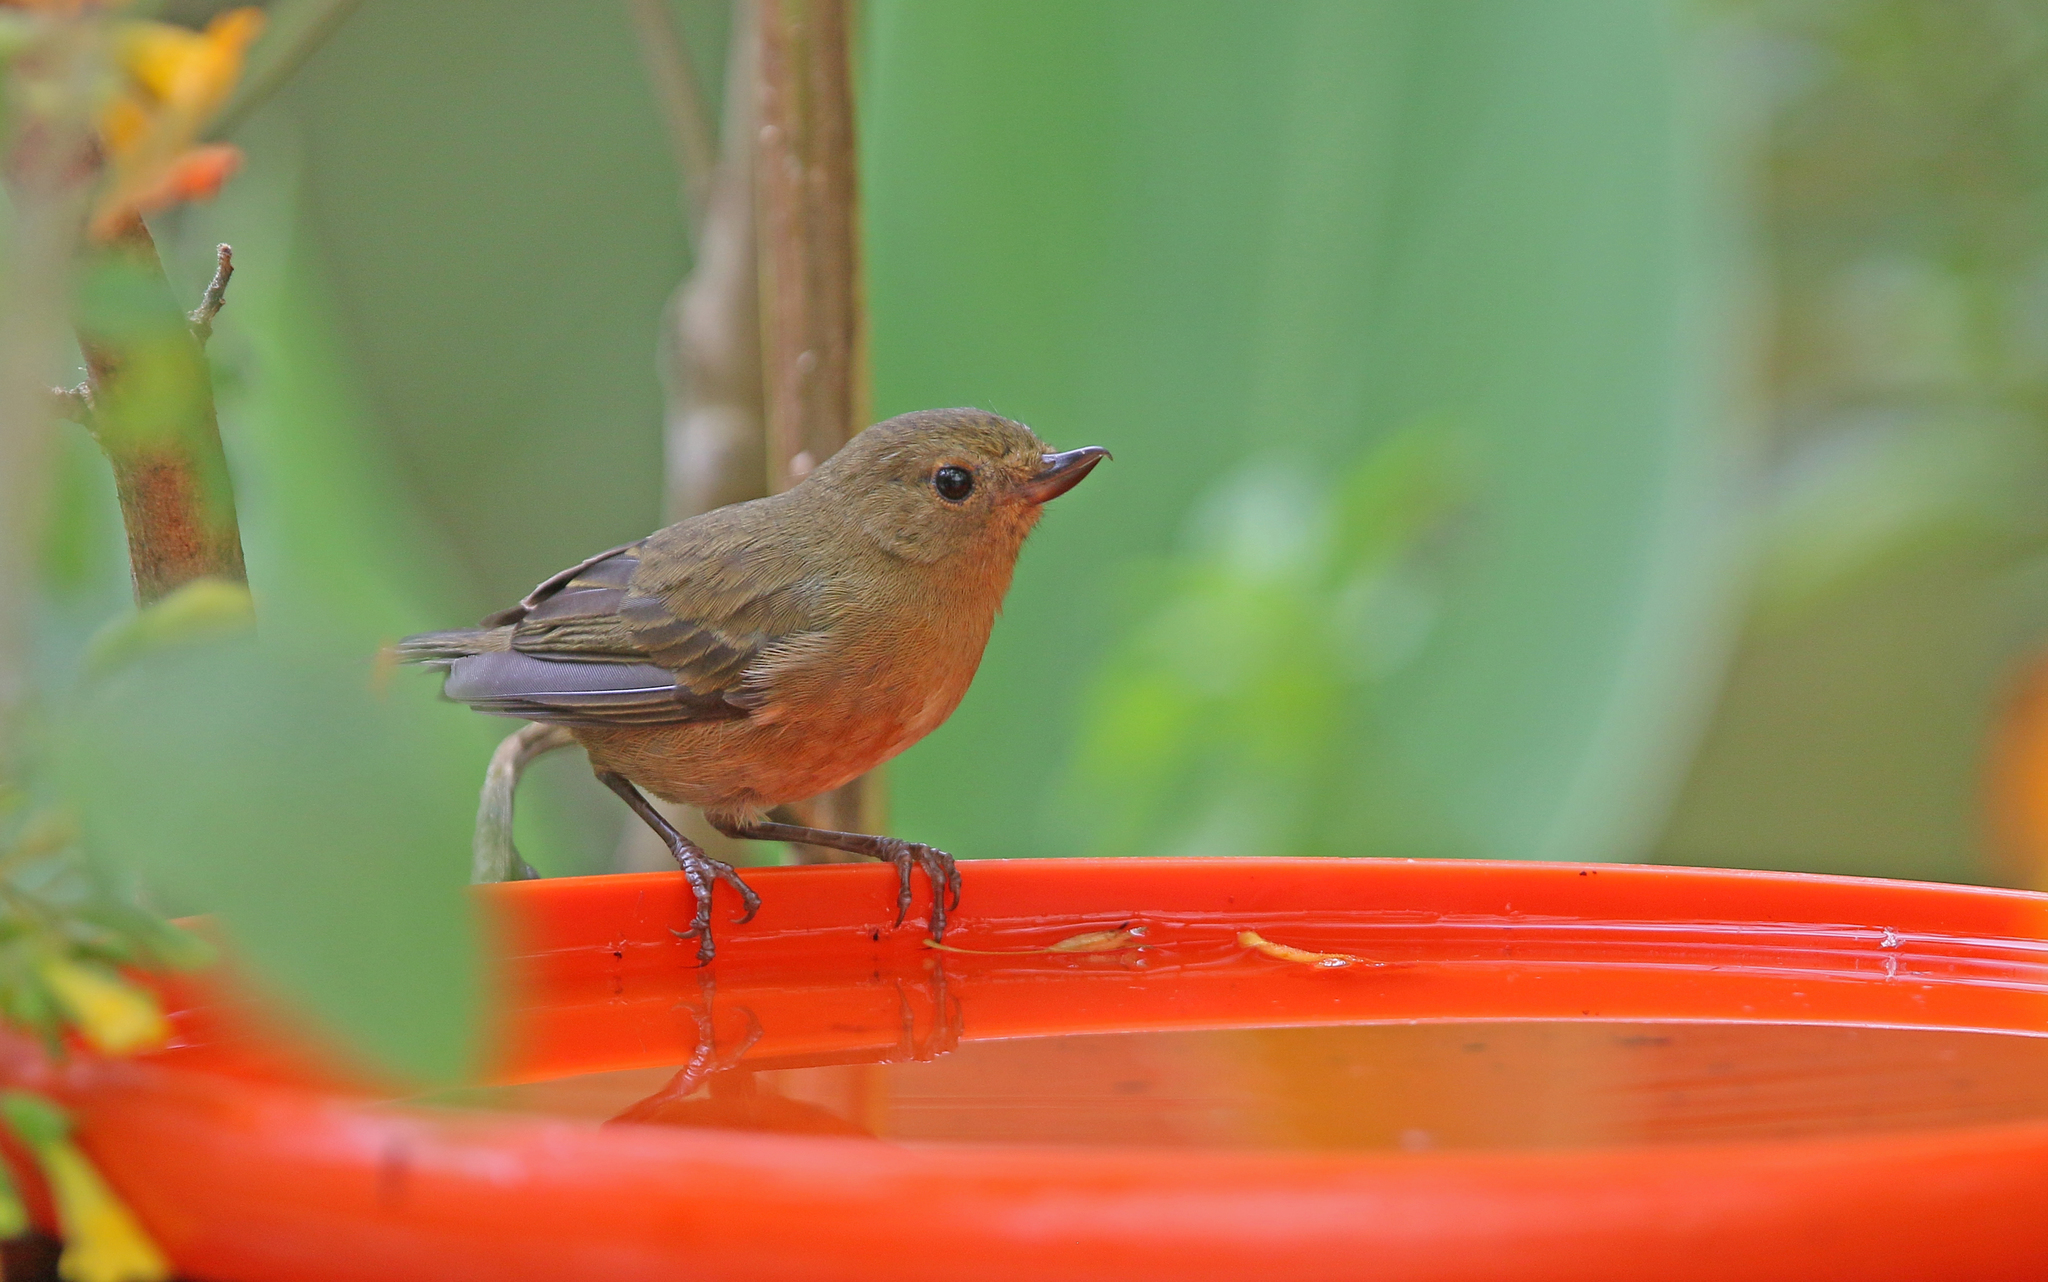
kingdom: Animalia
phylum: Chordata
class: Aves
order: Passeriformes
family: Thraupidae
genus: Diglossa
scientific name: Diglossa albilatera
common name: White-sided flowerpiercer
